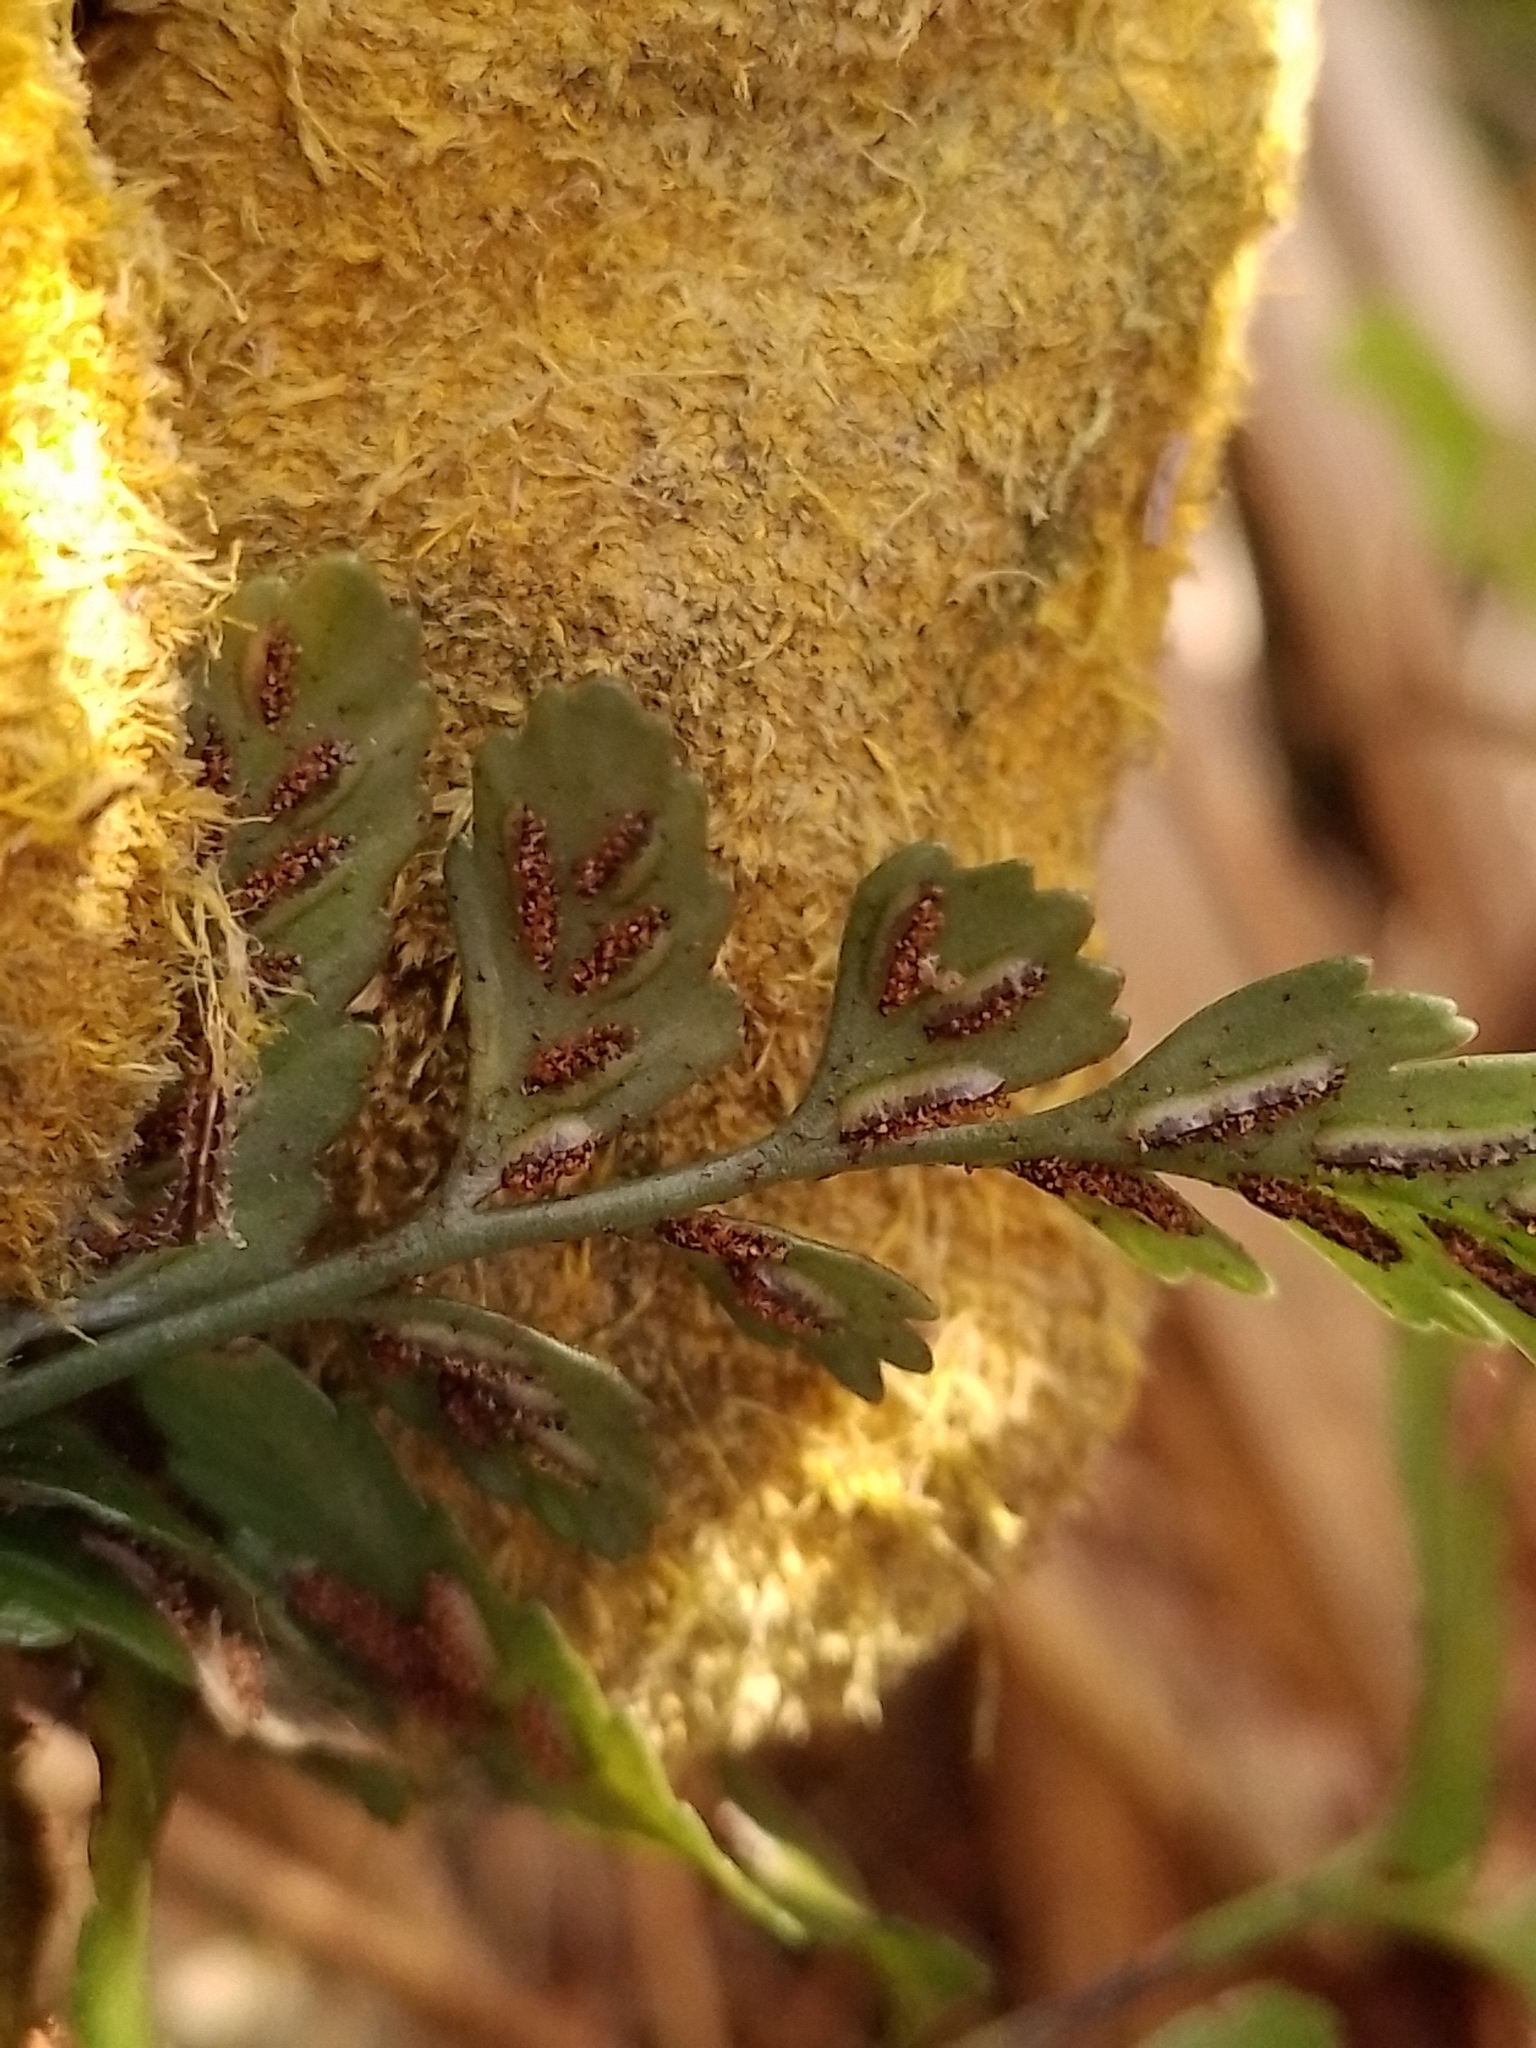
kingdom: Plantae
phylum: Tracheophyta
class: Polypodiopsida
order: Polypodiales
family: Aspleniaceae
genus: Asplenium
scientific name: Asplenium lyallii
